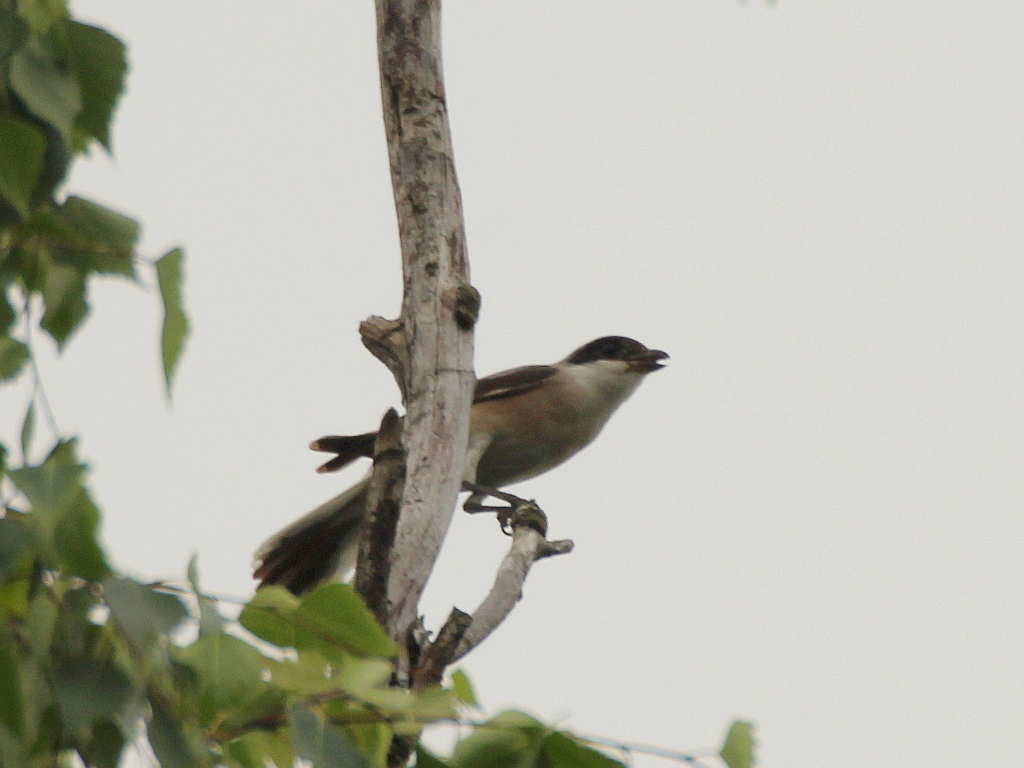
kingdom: Animalia
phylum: Chordata
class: Aves
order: Passeriformes
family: Laniidae
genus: Lanius
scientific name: Lanius minor
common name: Lesser grey shrike
